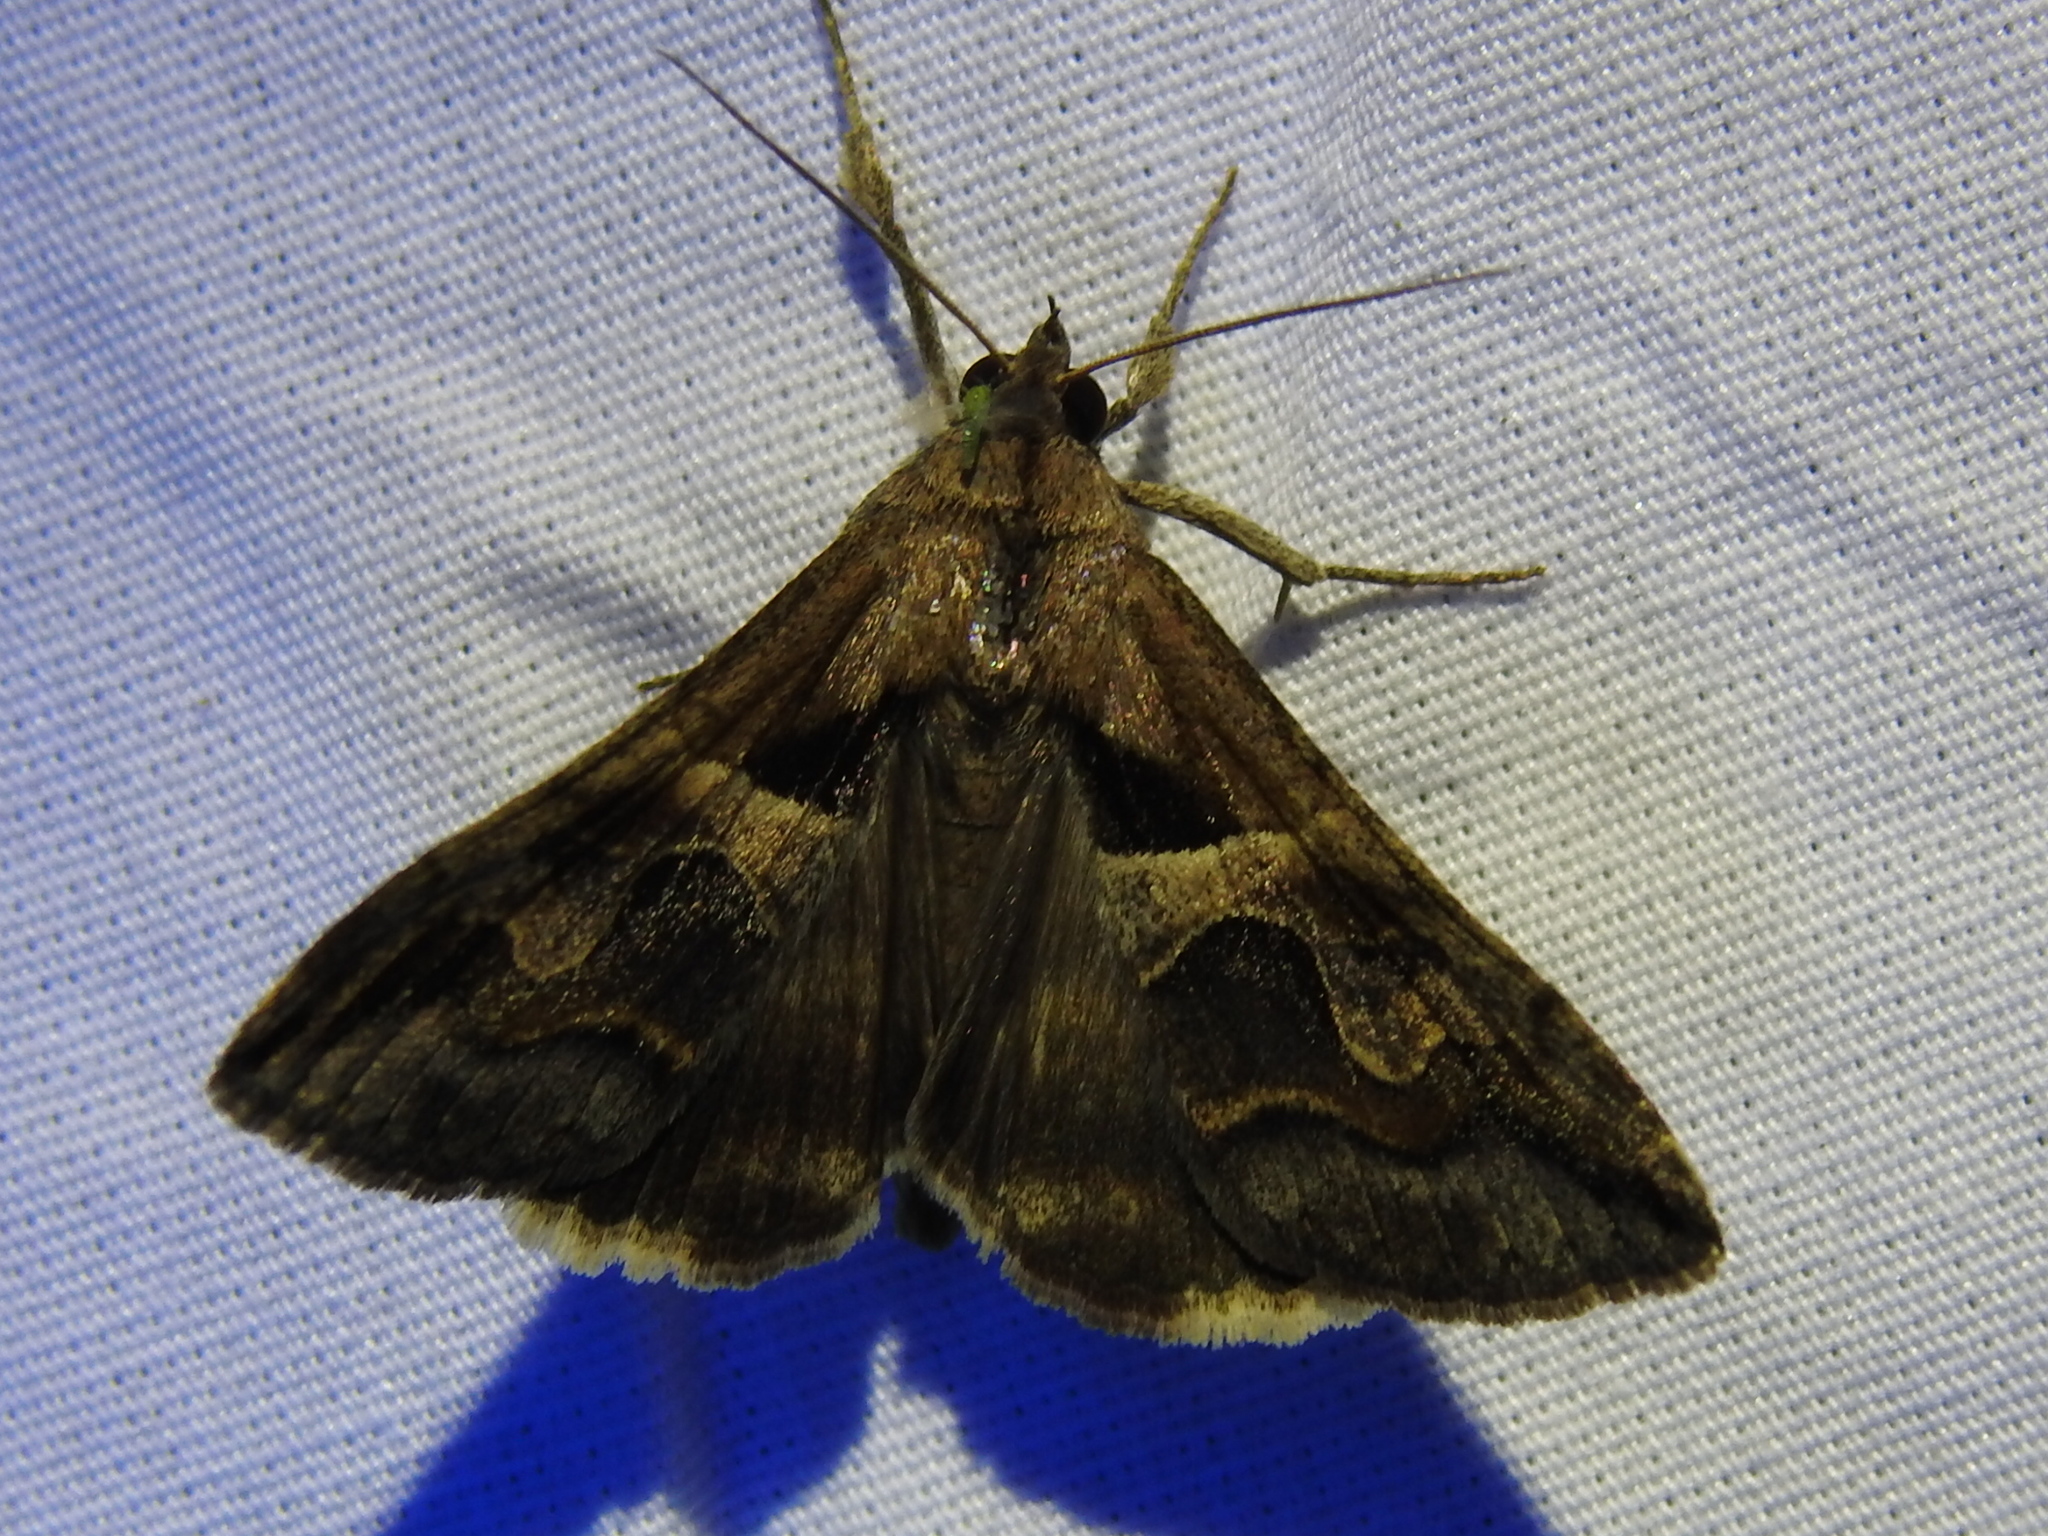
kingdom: Animalia
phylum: Arthropoda
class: Insecta
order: Lepidoptera
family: Erebidae
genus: Melipotis
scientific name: Melipotis cellaris
